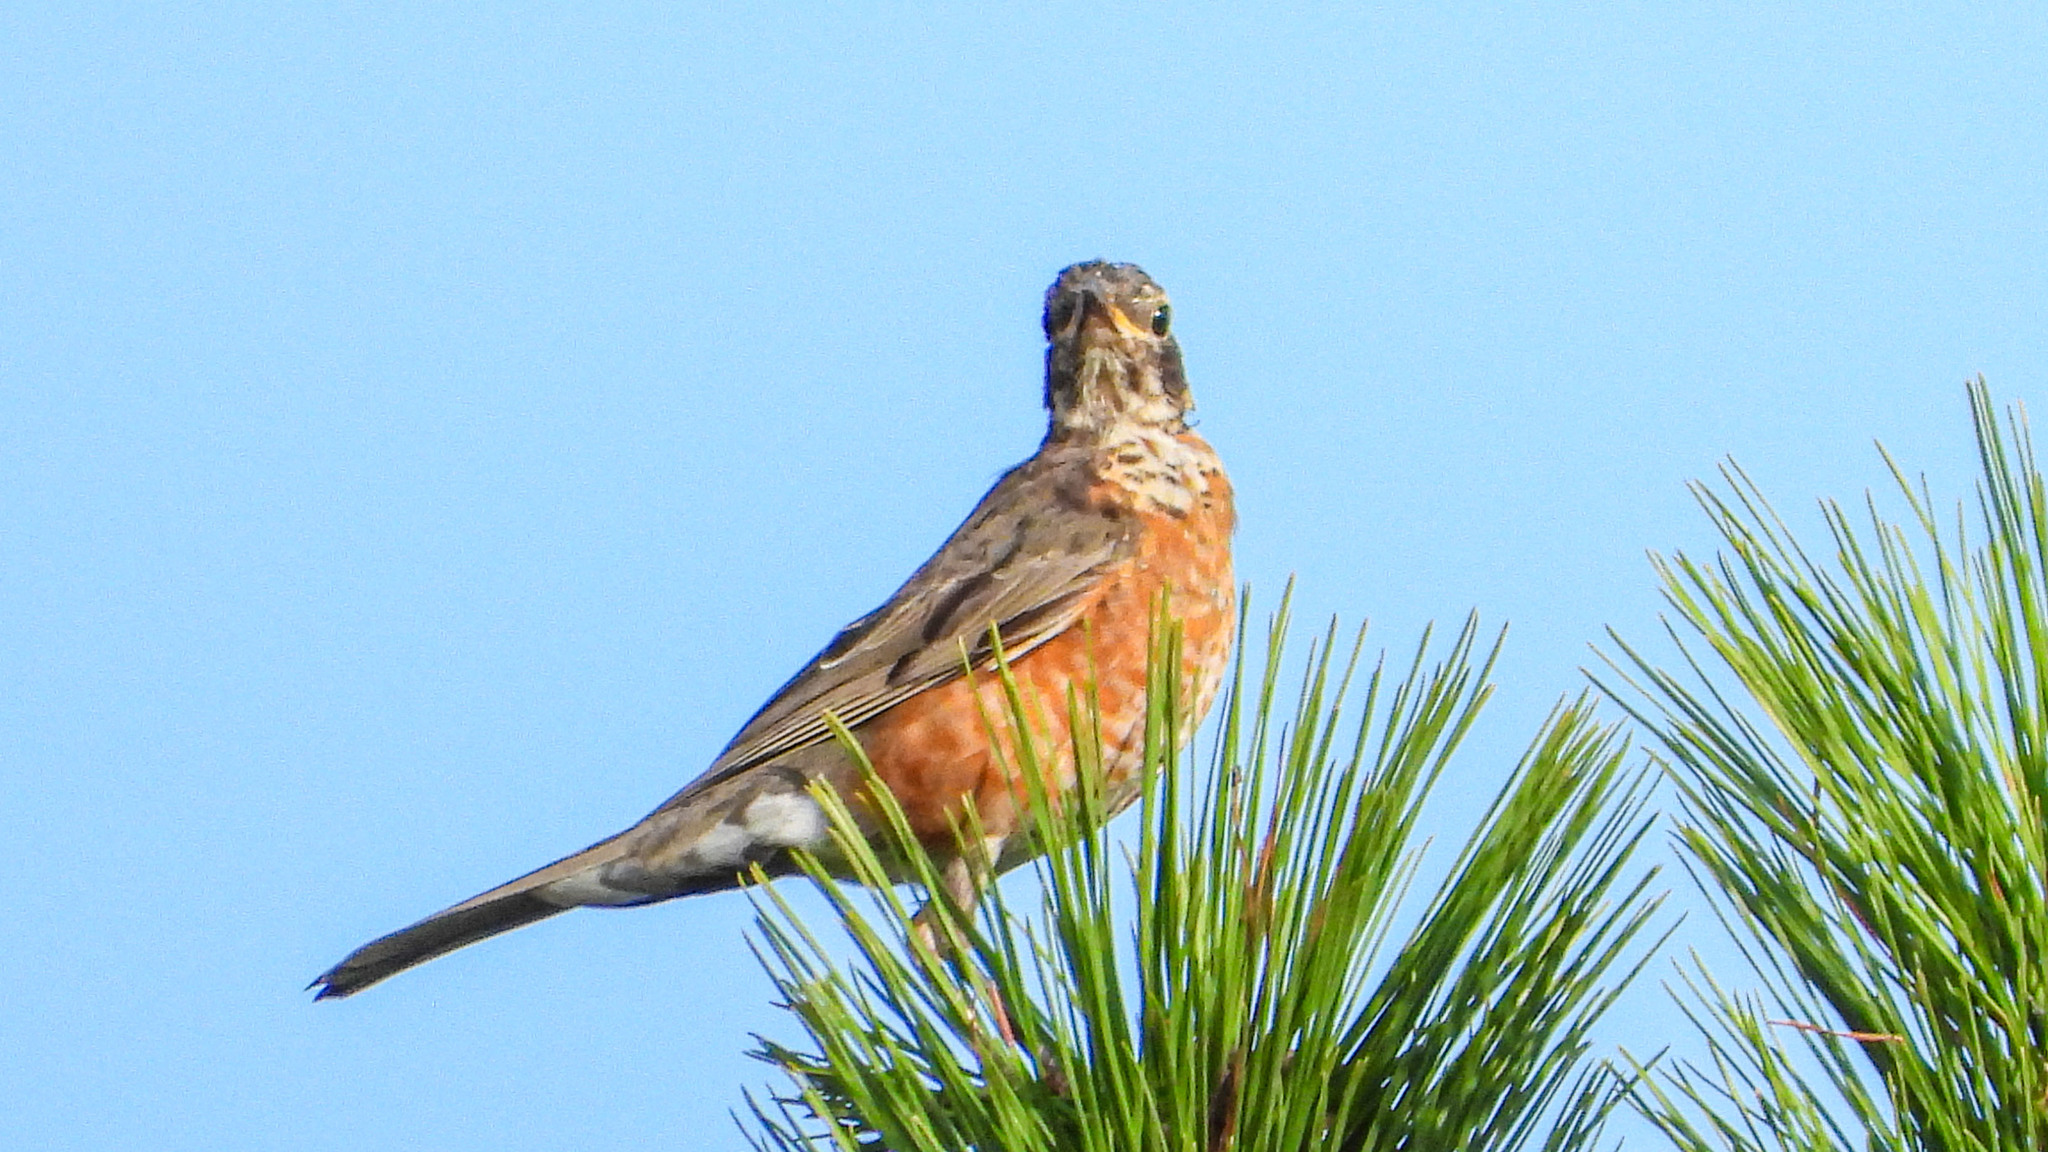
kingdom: Animalia
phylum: Chordata
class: Aves
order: Passeriformes
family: Turdidae
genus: Turdus
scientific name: Turdus migratorius
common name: American robin
